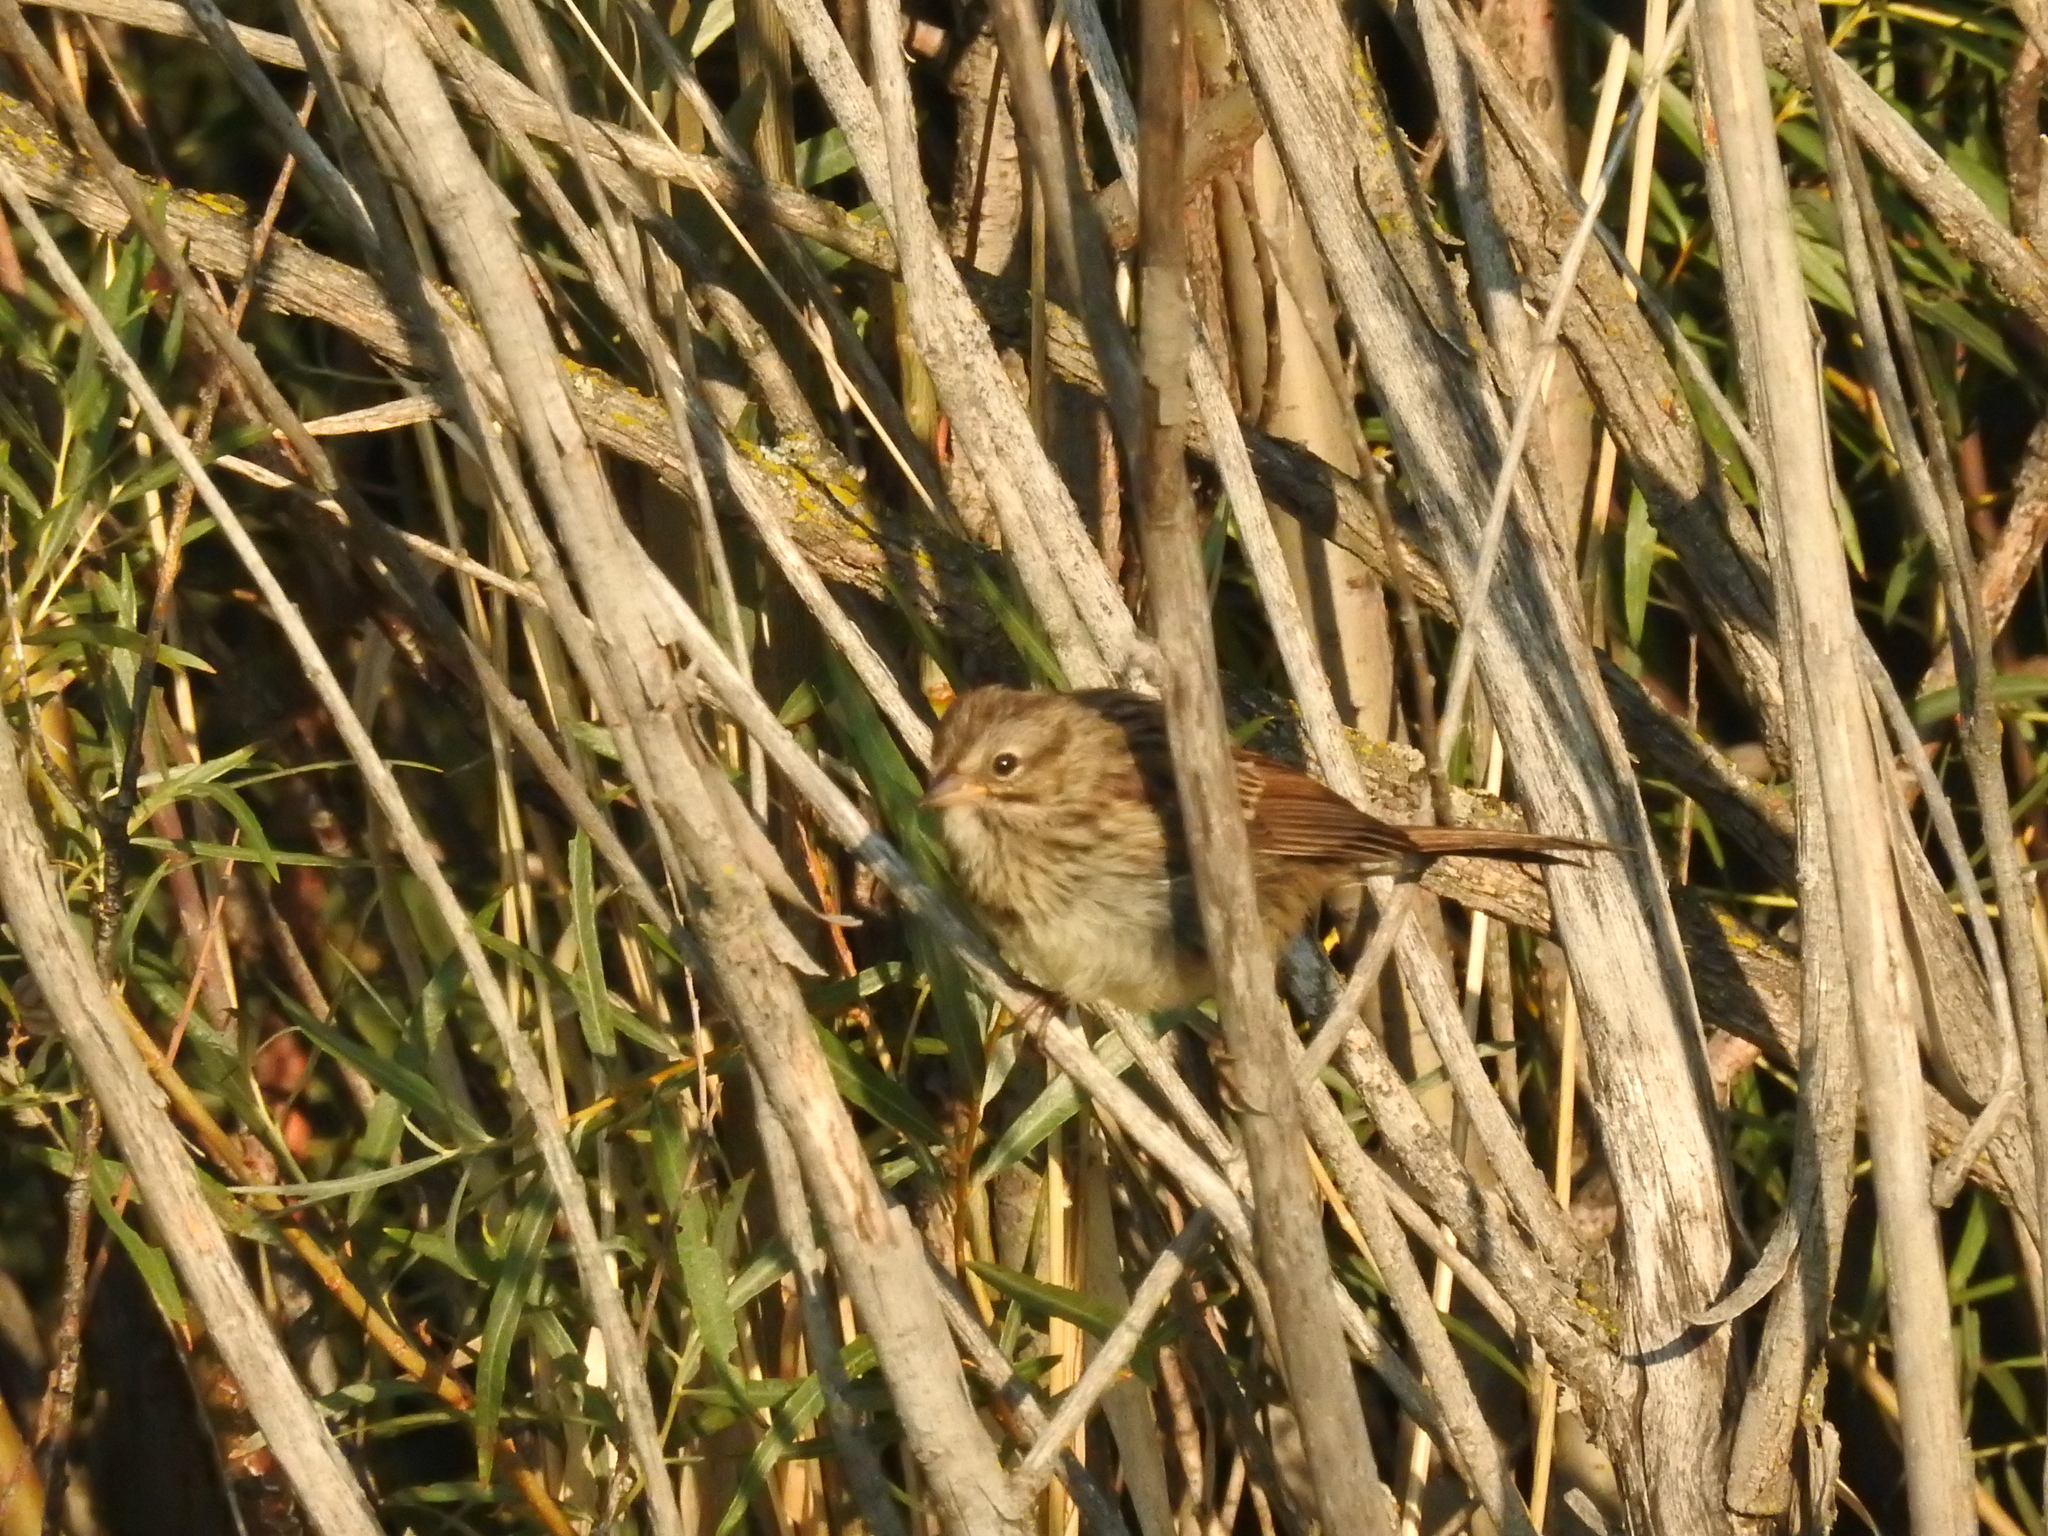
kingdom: Animalia
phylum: Chordata
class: Aves
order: Passeriformes
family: Passerellidae
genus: Melospiza
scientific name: Melospiza melodia
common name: Song sparrow
